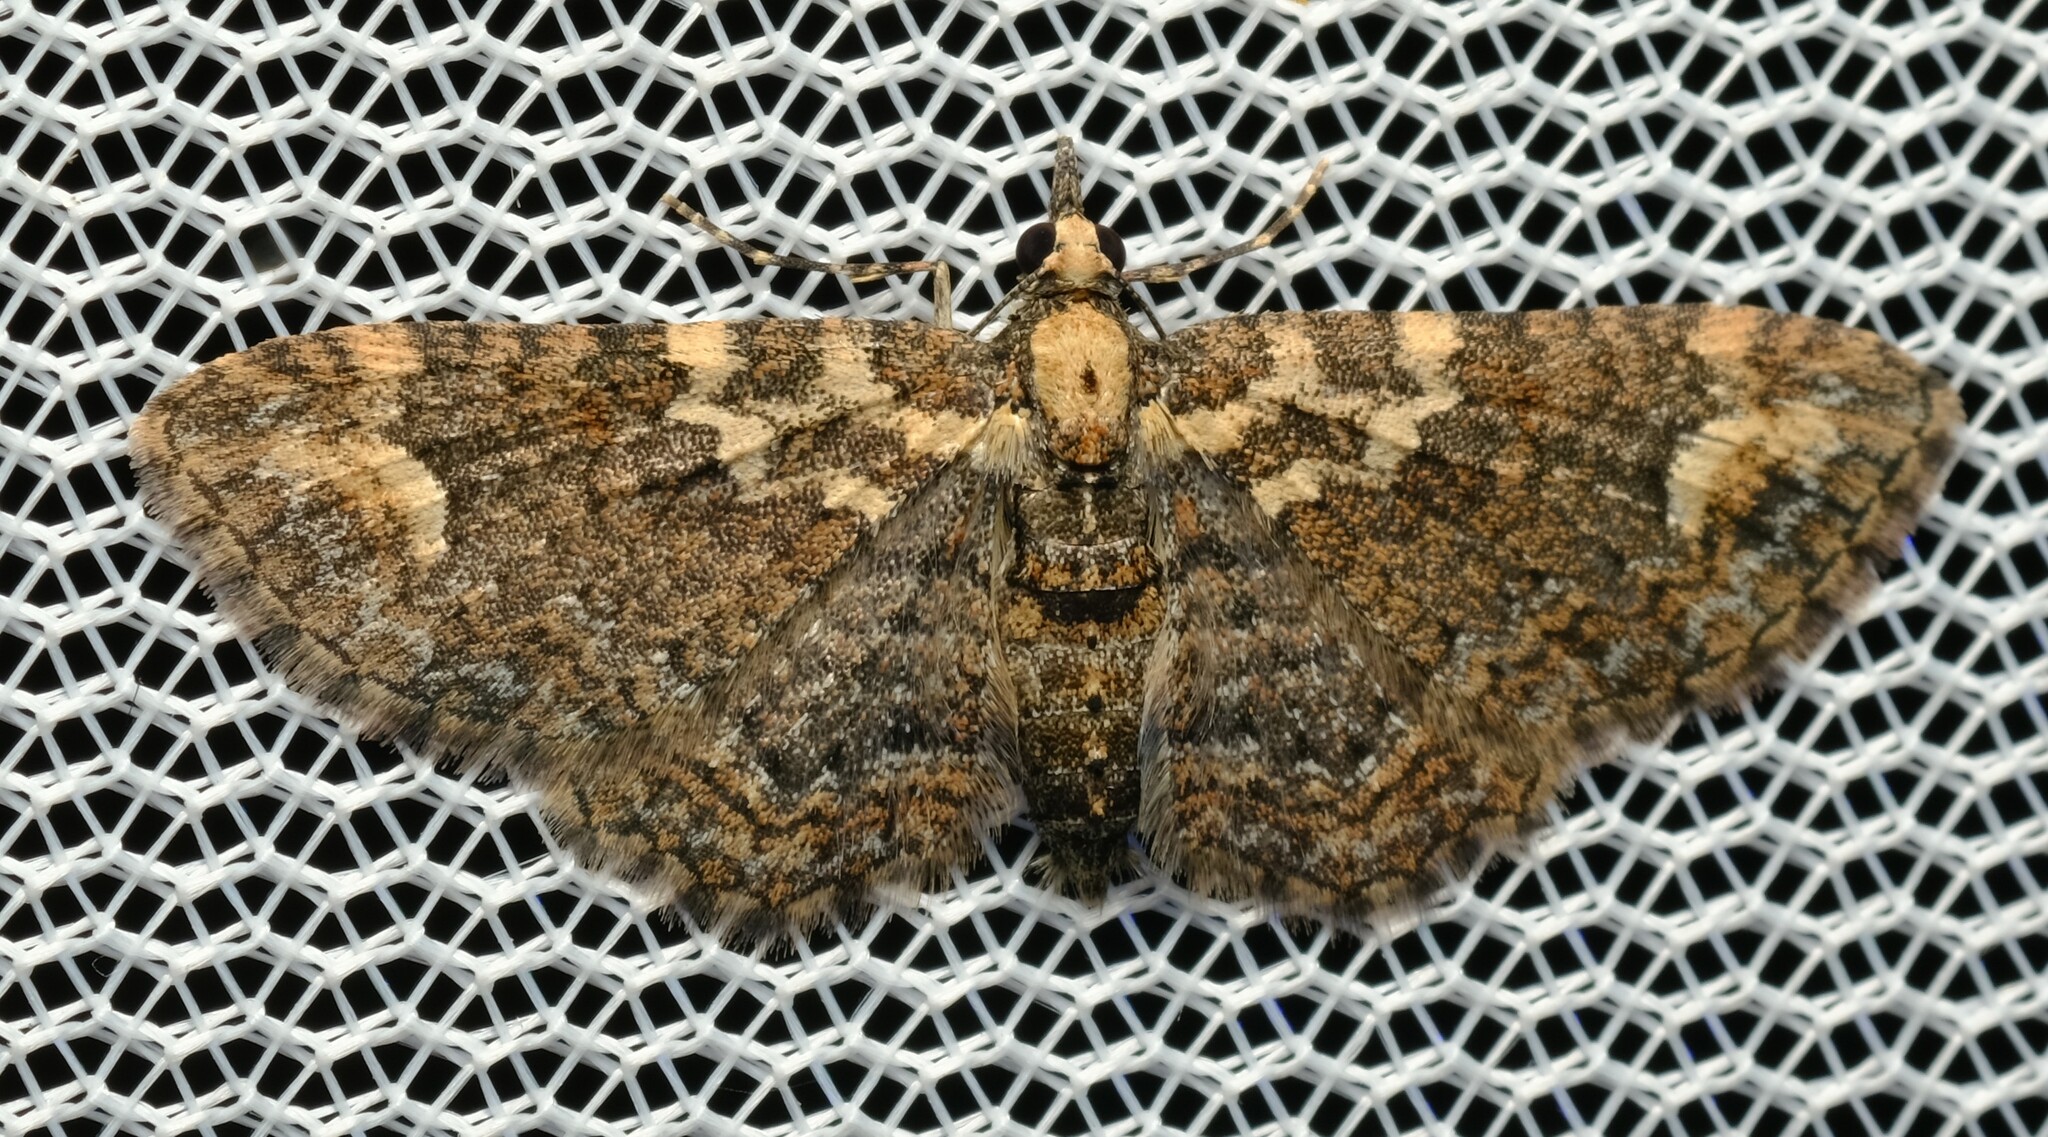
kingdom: Animalia
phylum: Arthropoda
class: Insecta
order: Lepidoptera
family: Geometridae
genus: Pasiphilodes
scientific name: Pasiphilodes testulata
